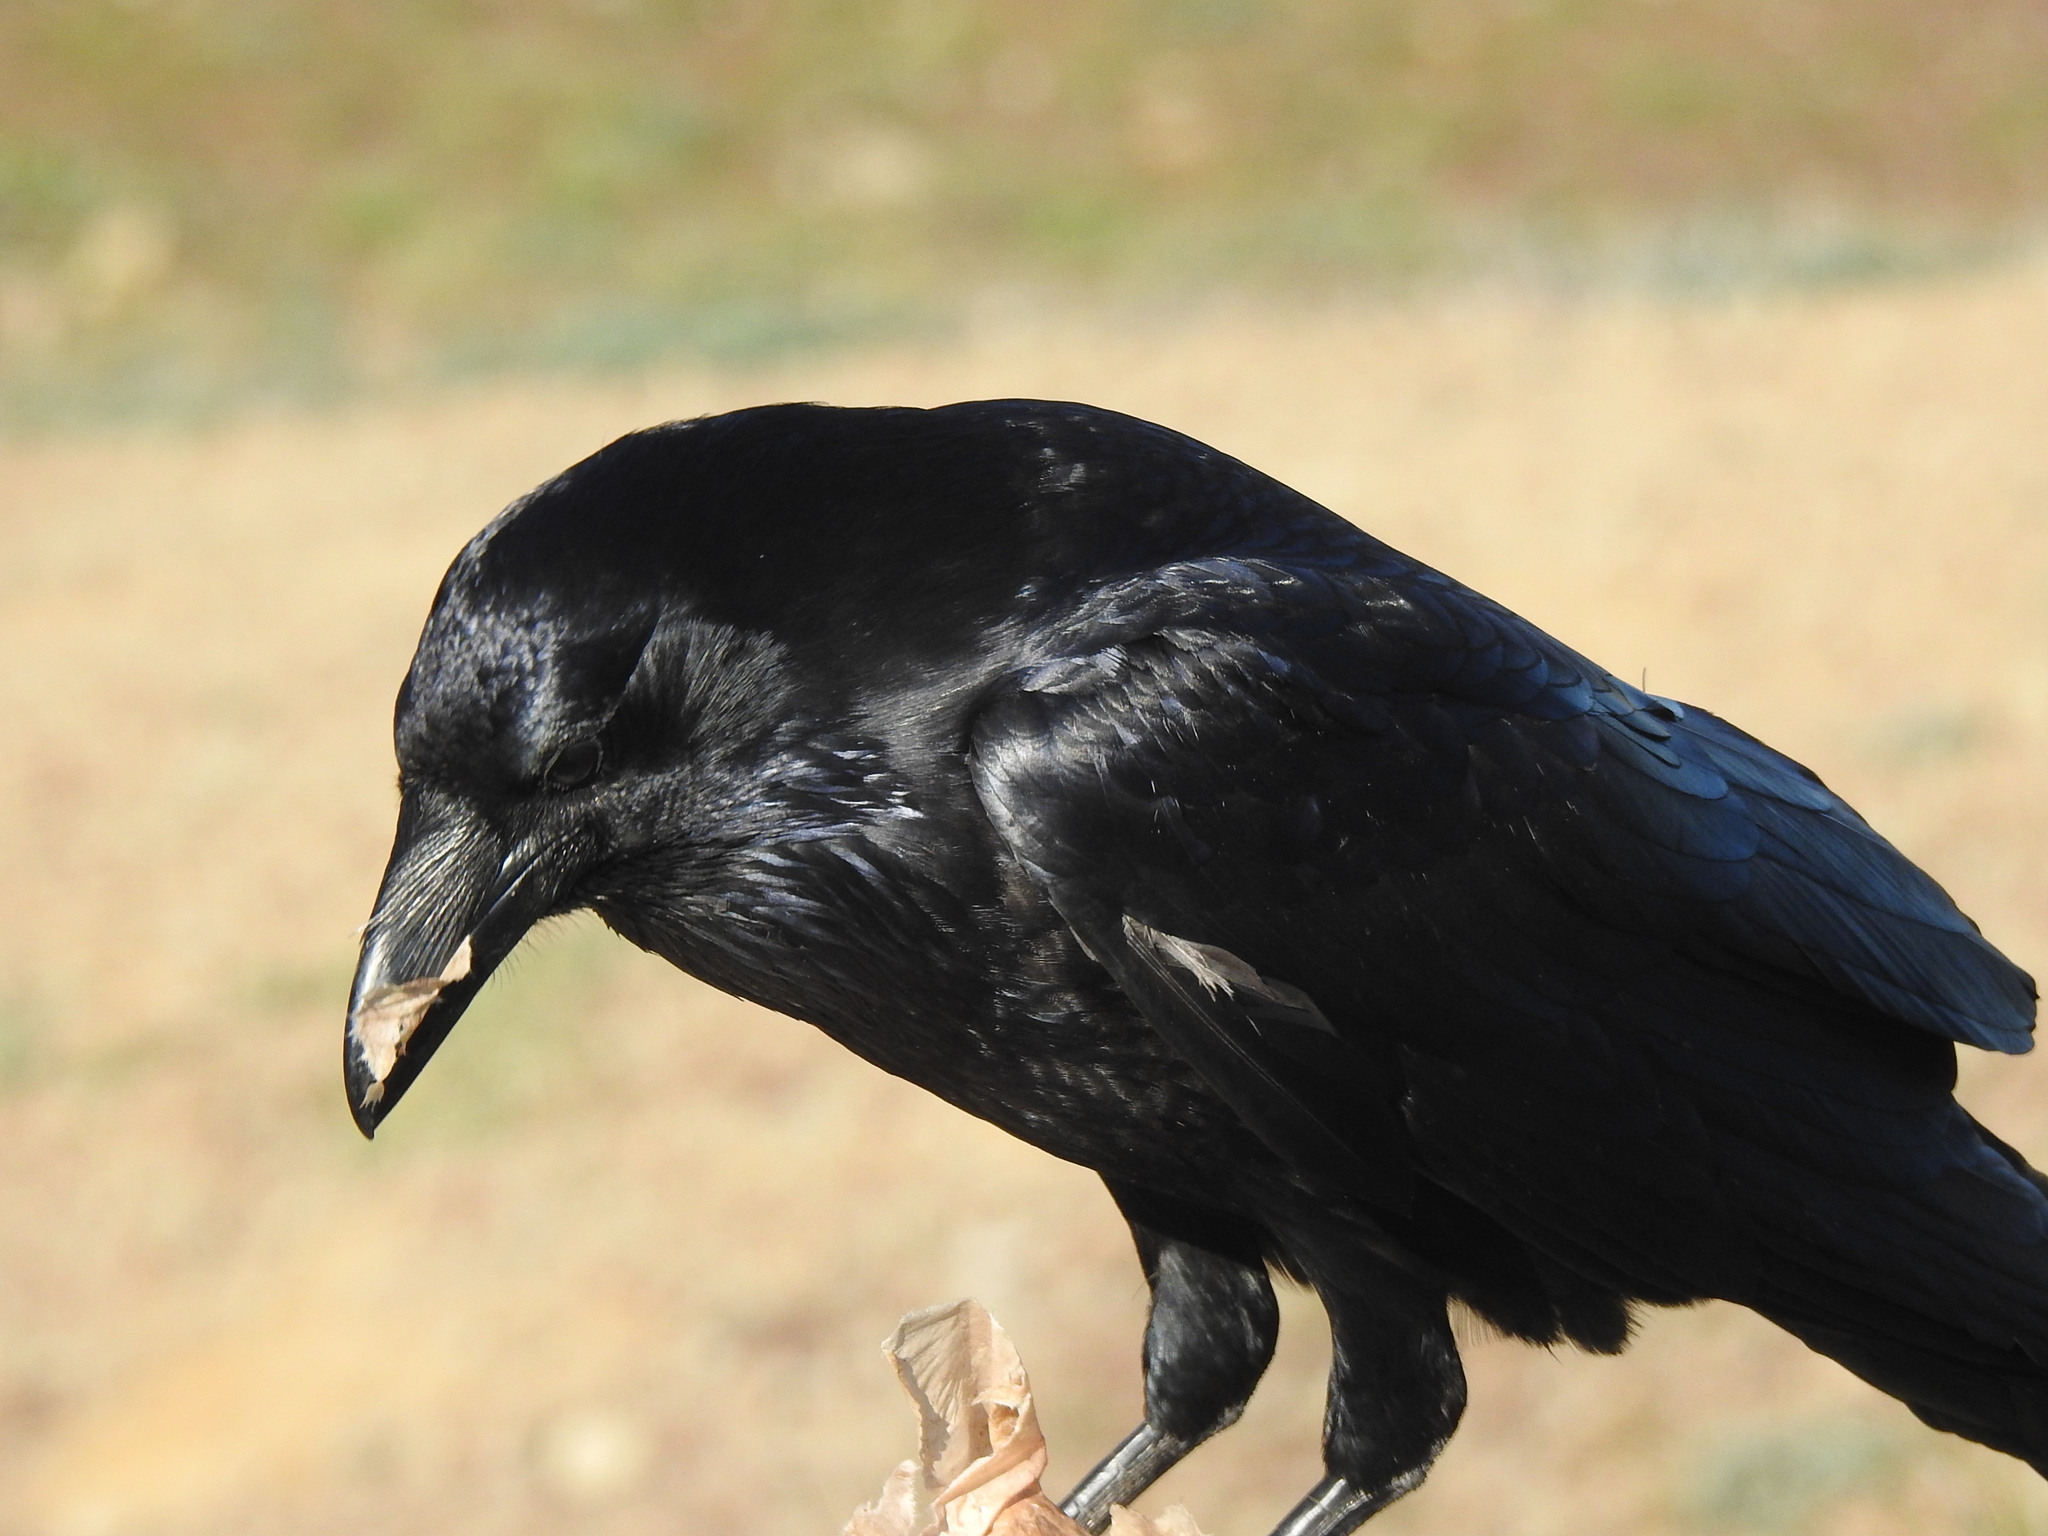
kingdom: Animalia
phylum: Chordata
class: Aves
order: Passeriformes
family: Corvidae
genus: Corvus
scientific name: Corvus corax
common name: Common raven
